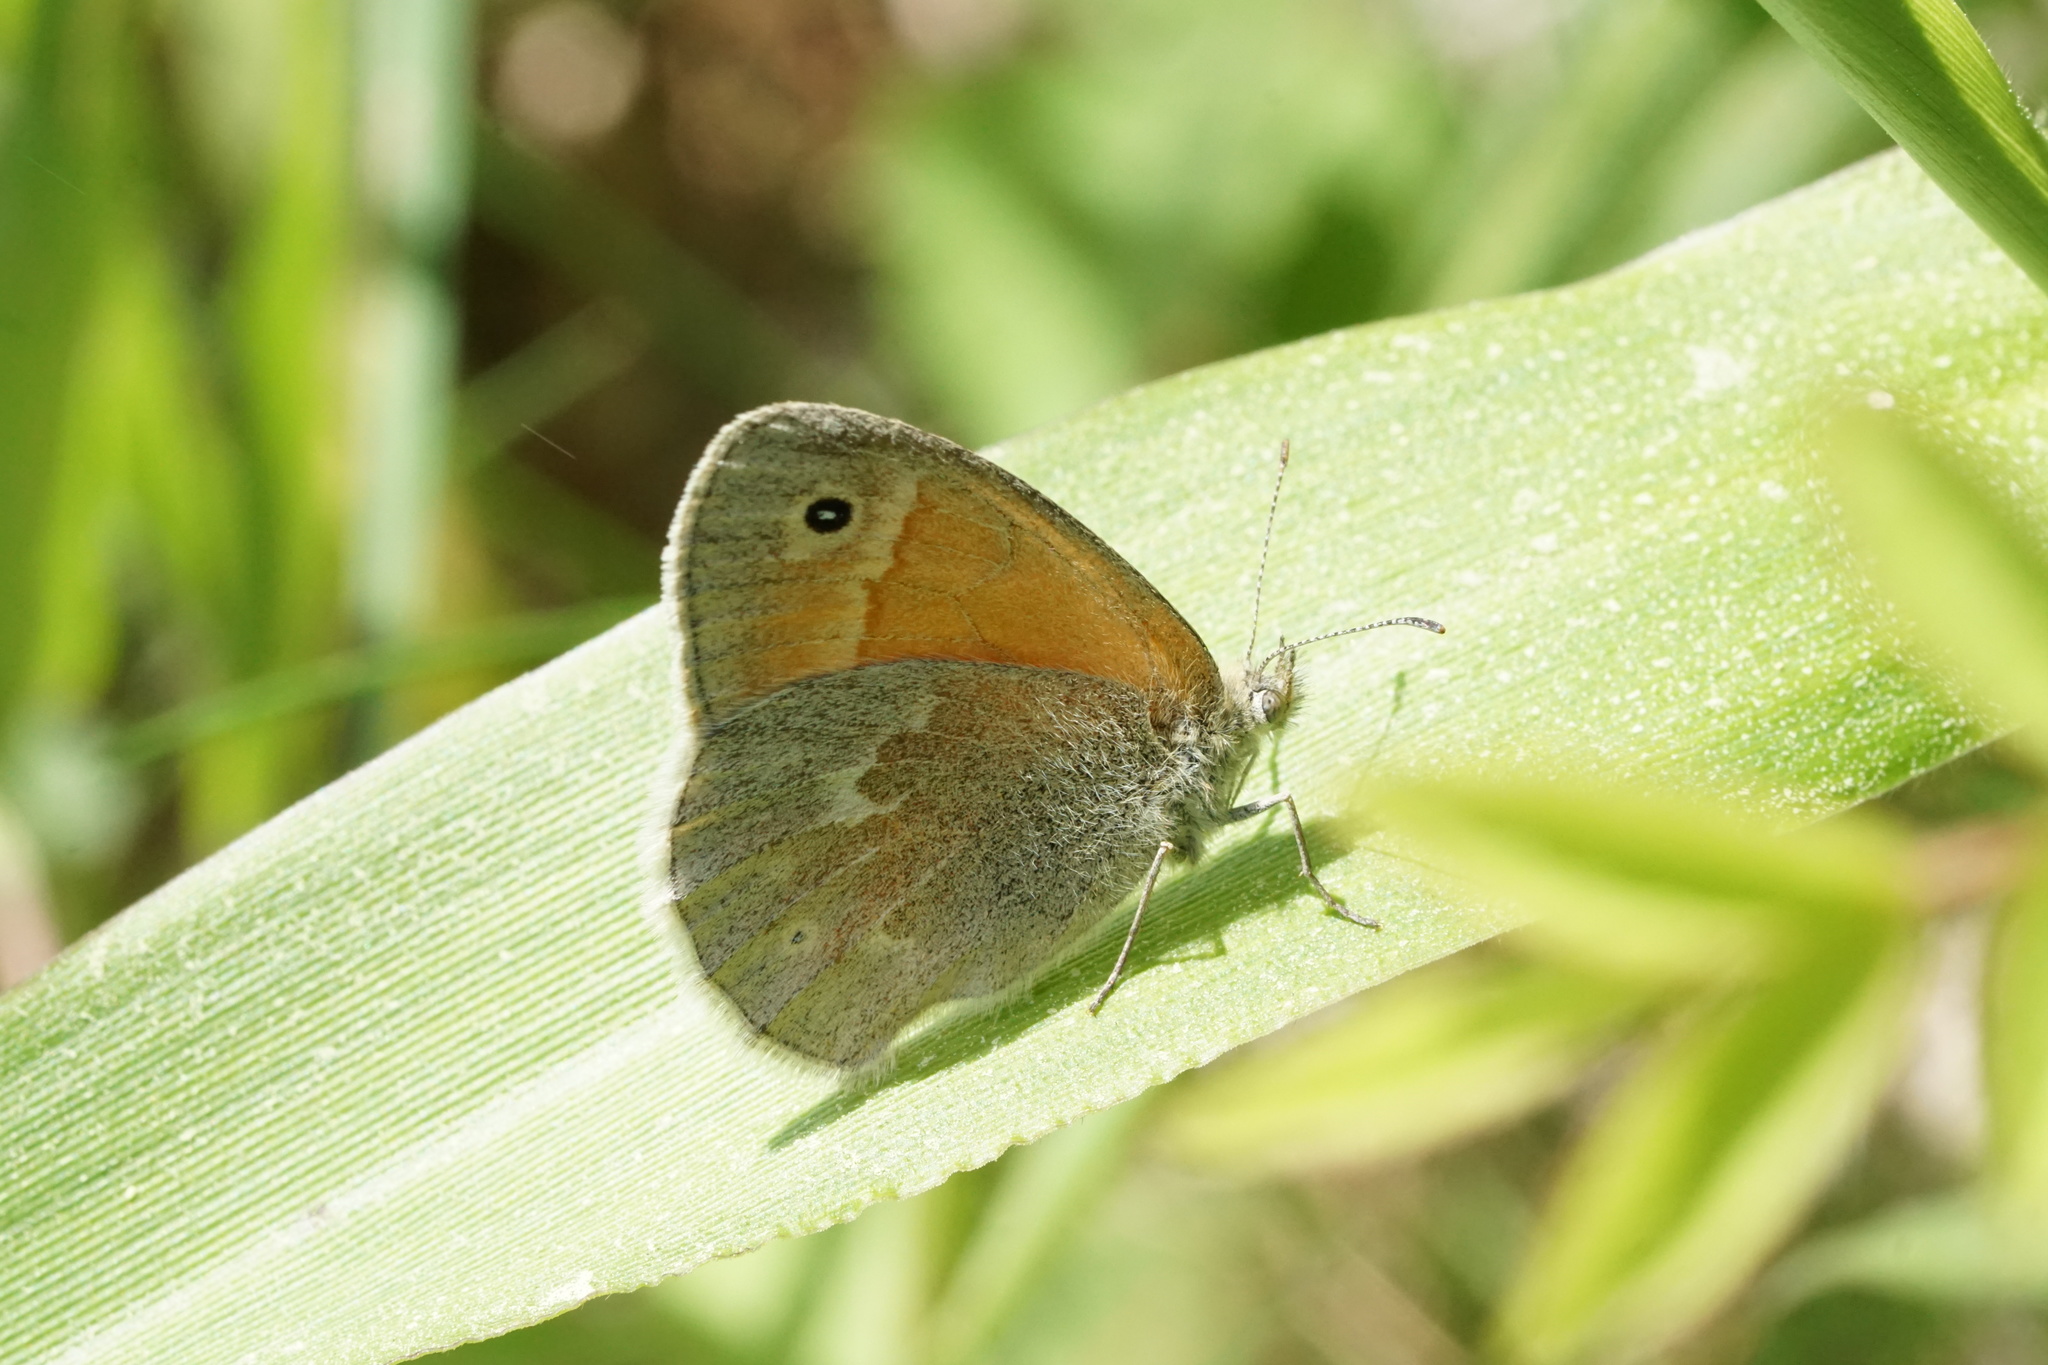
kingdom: Animalia
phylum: Arthropoda
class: Insecta
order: Lepidoptera
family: Nymphalidae
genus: Coenonympha
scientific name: Coenonympha california
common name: Common ringlet
